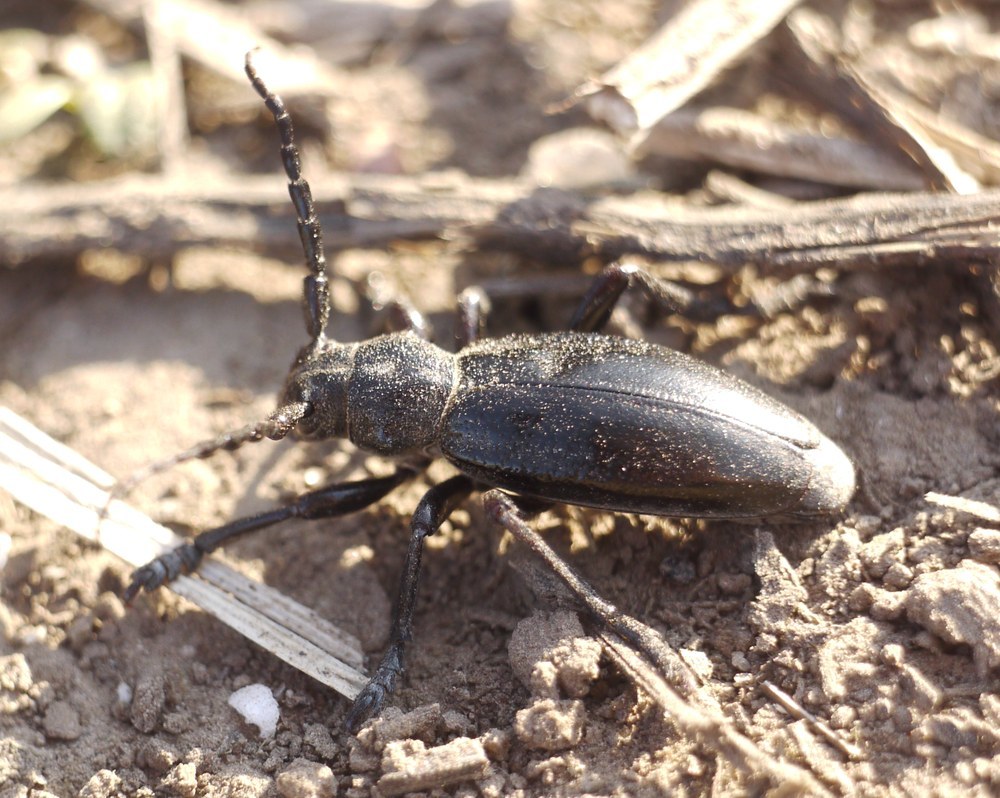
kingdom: Animalia
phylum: Arthropoda
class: Insecta
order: Coleoptera
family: Cerambycidae
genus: Dorcadion
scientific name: Dorcadion carinatum
